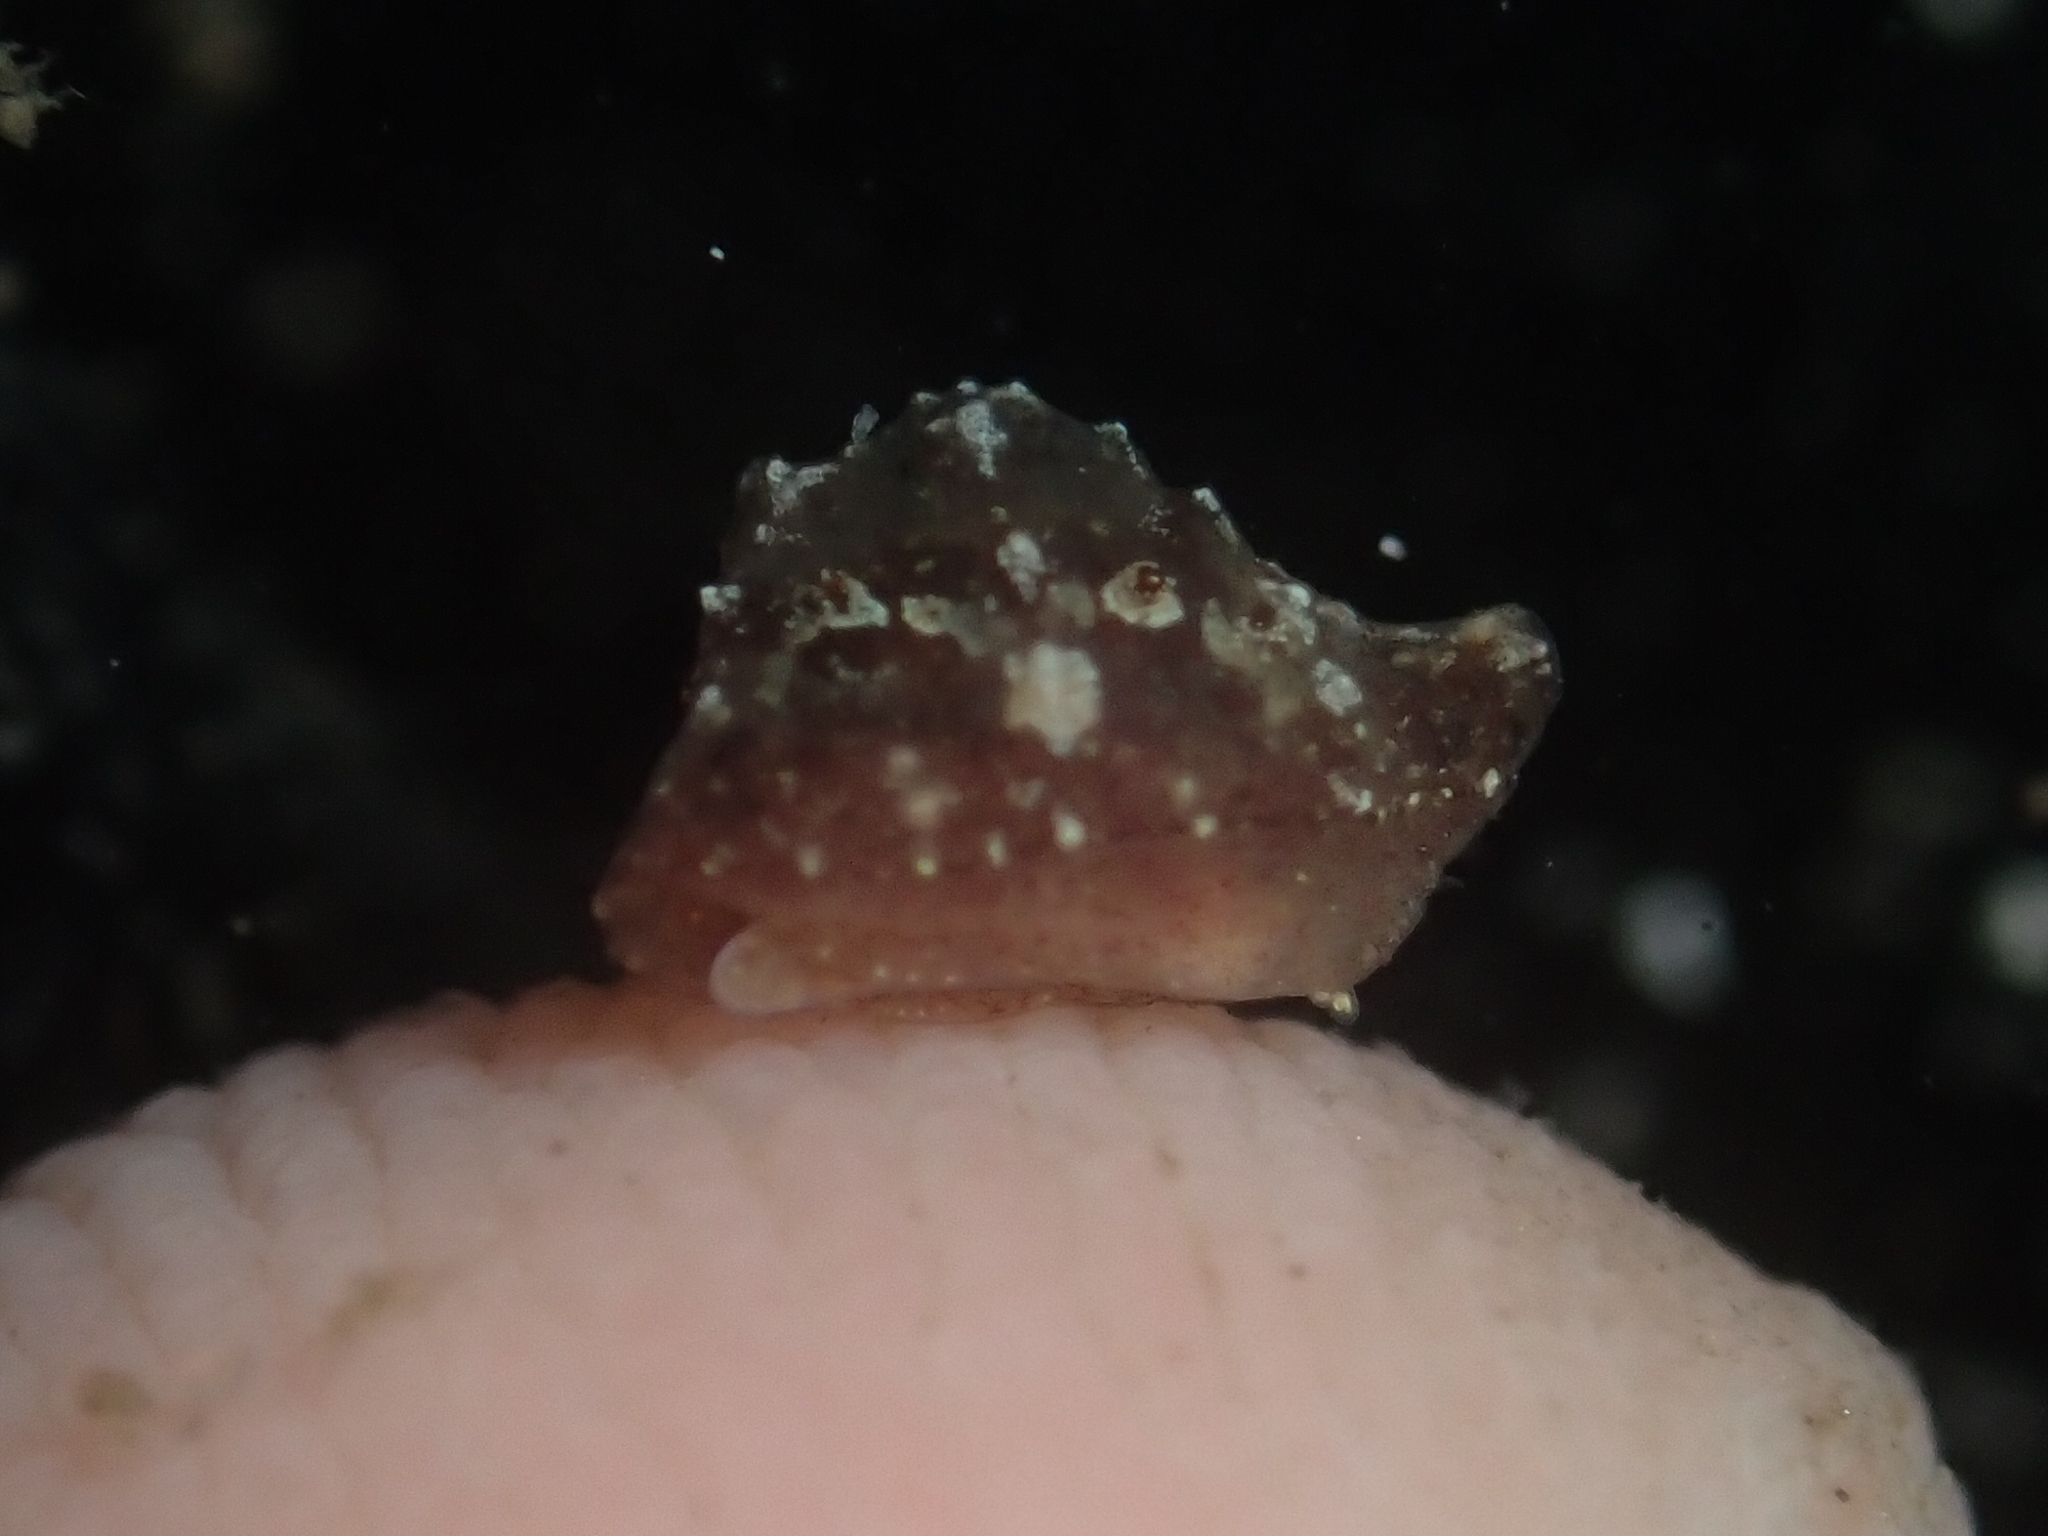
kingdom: Animalia
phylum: Mollusca
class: Gastropoda
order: Littorinimorpha
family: Velutinidae
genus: Hainotis
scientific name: Hainotis sharonae
